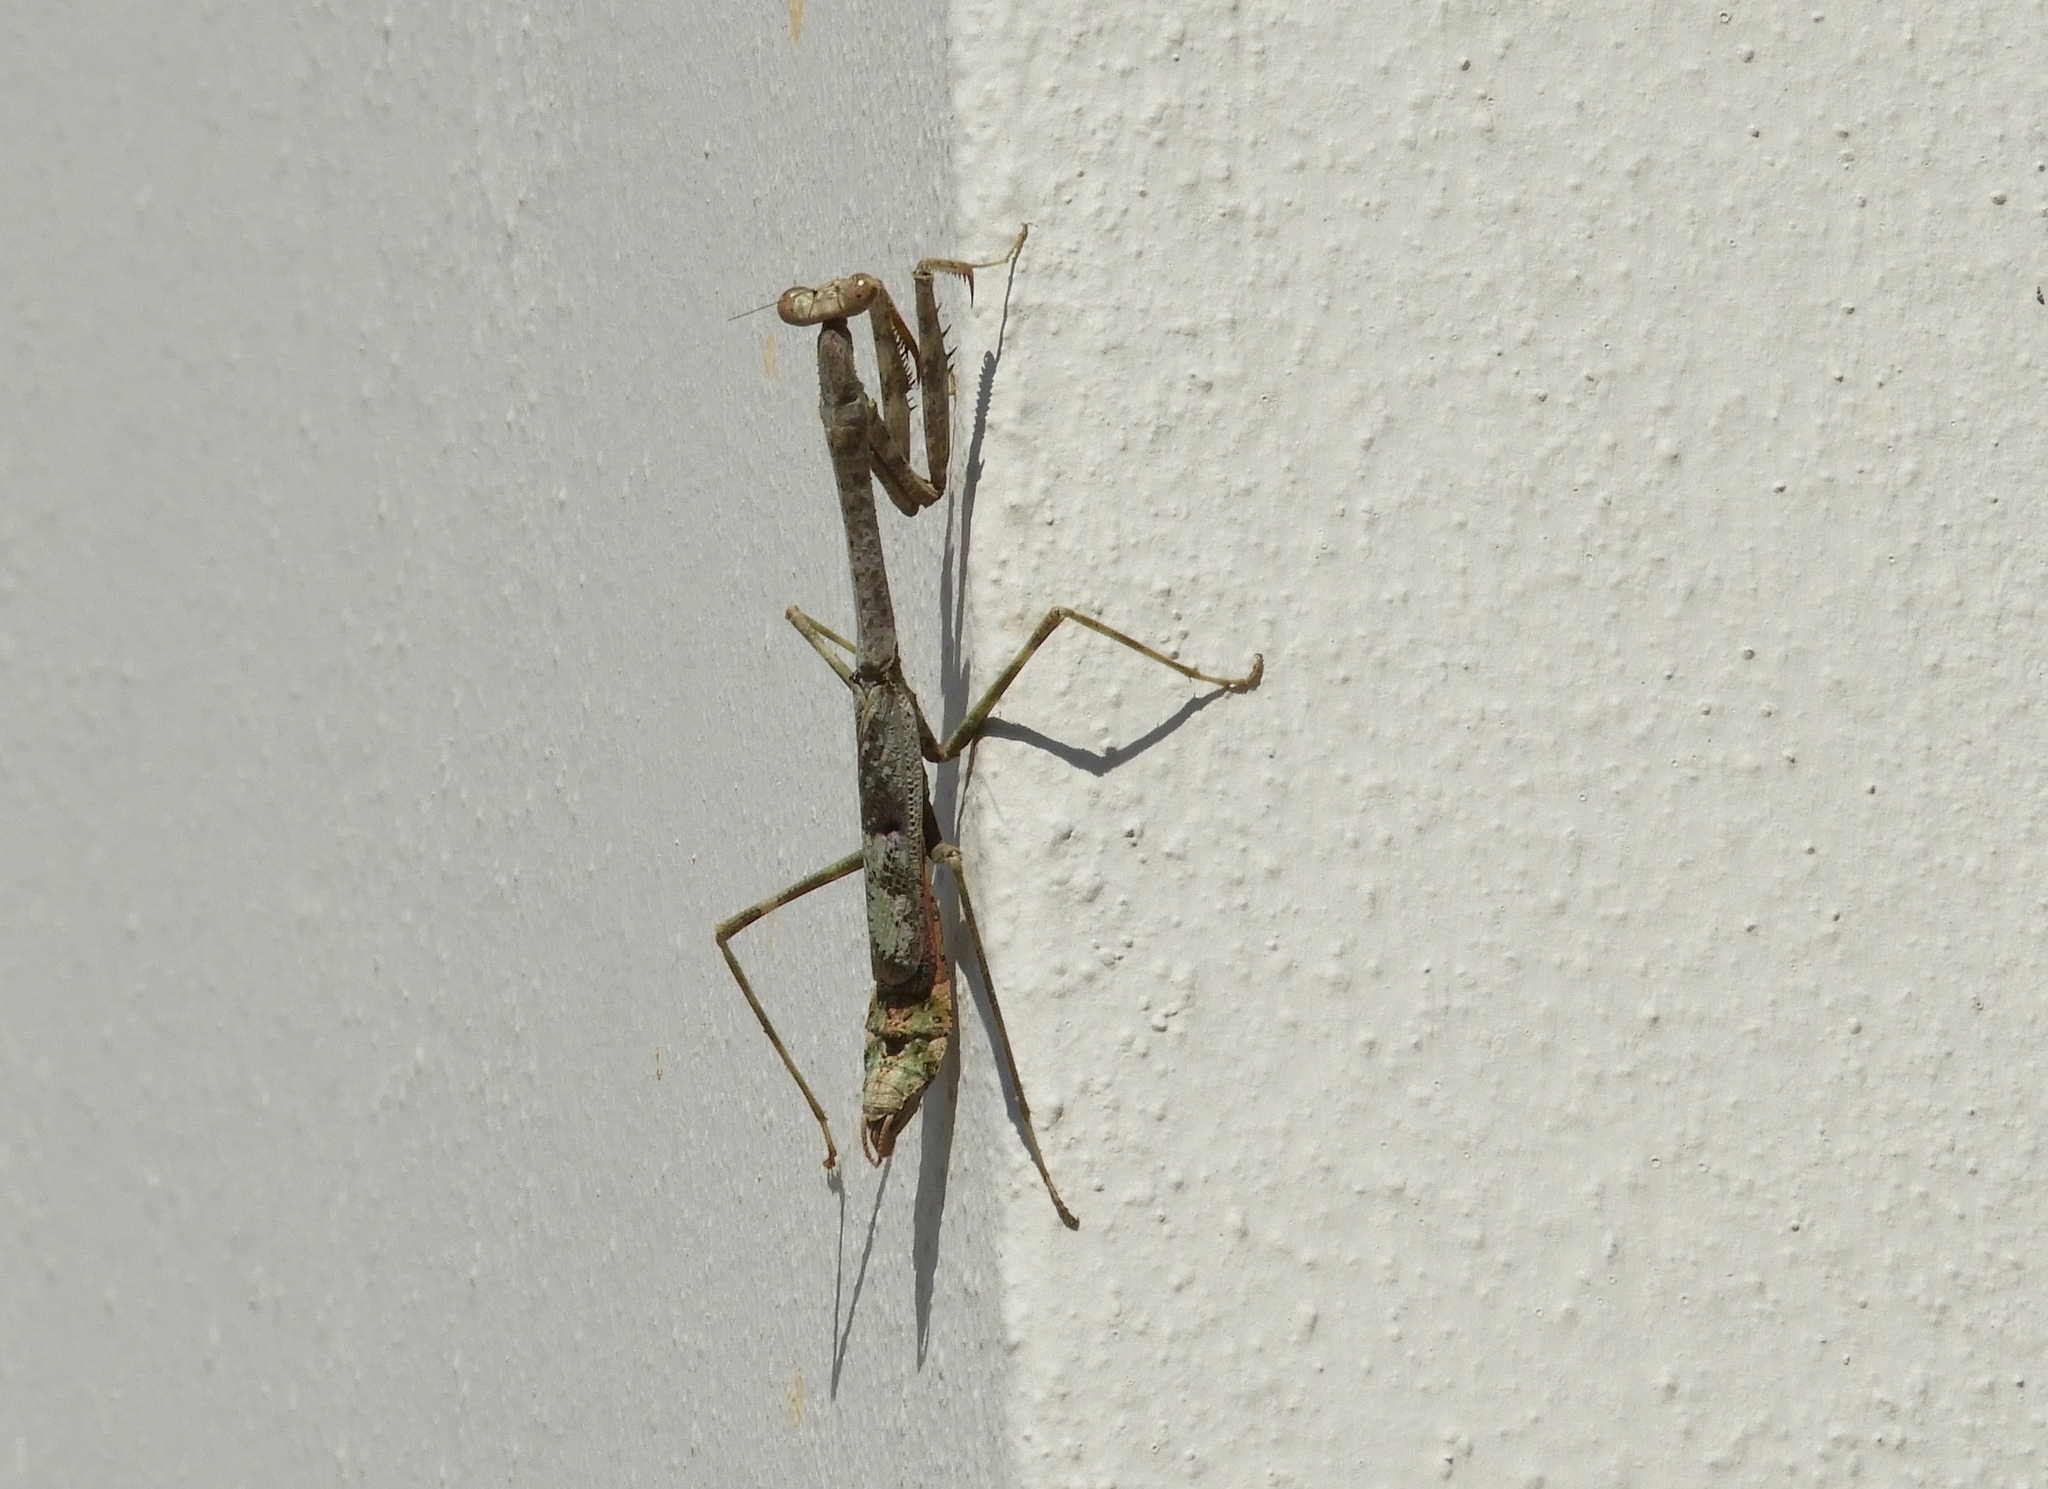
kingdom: Animalia
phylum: Arthropoda
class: Insecta
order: Mantodea
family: Mantidae
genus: Stagmomantis
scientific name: Stagmomantis carolina
